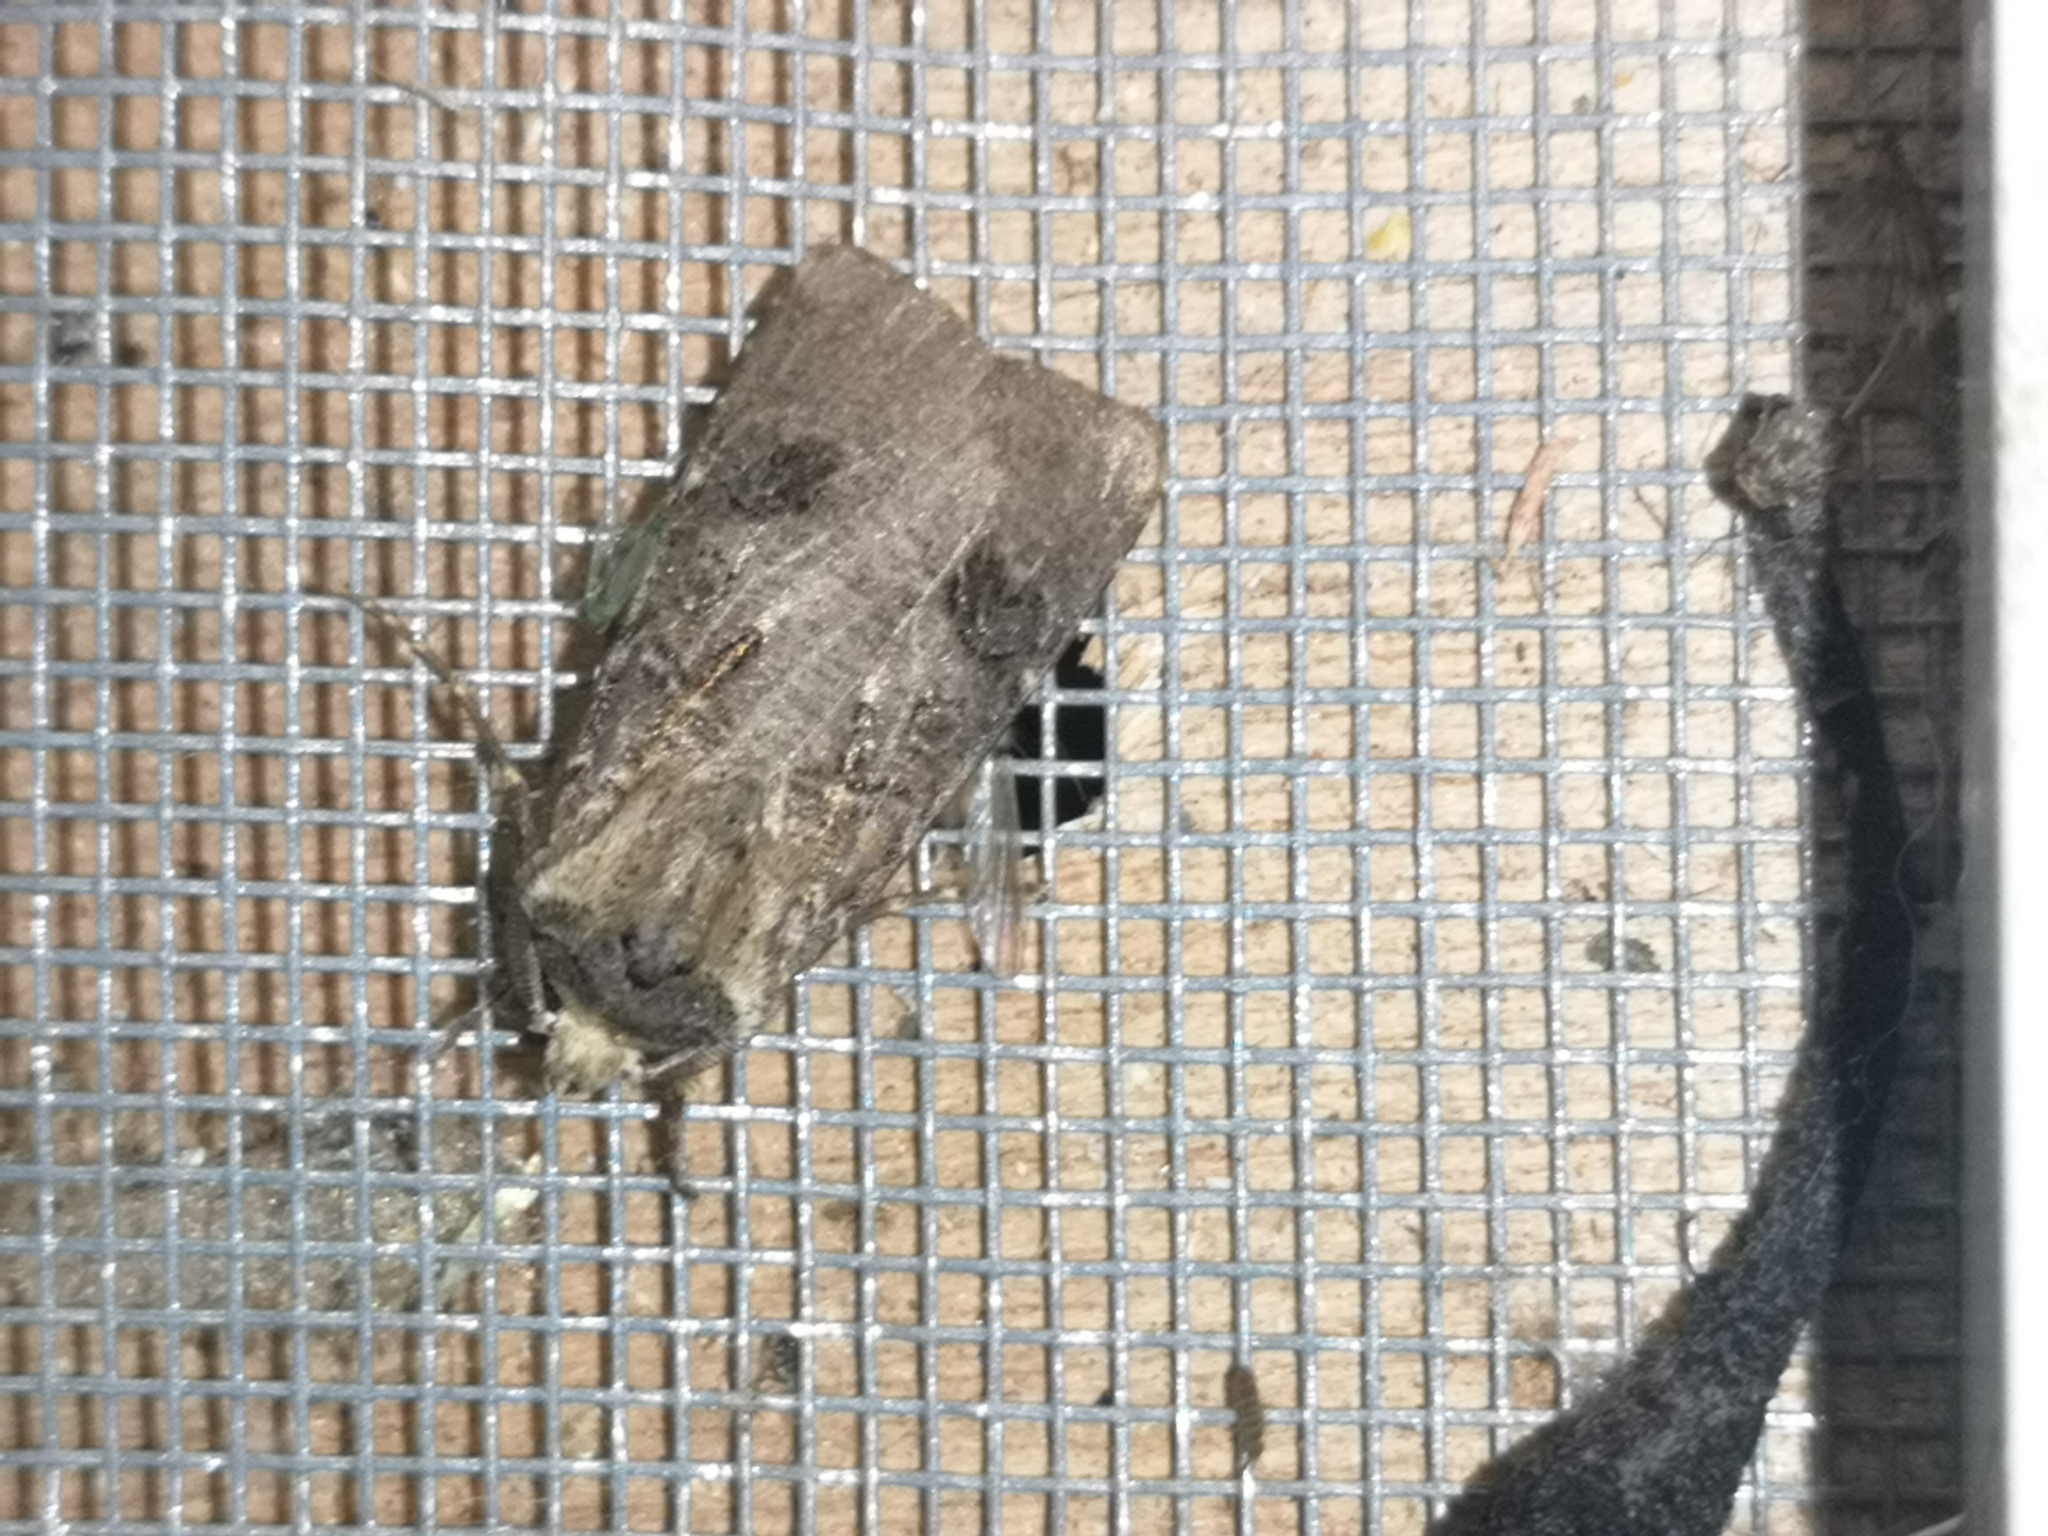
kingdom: Animalia
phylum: Arthropoda
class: Insecta
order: Lepidoptera
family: Noctuidae
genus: Agrotis
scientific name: Agrotis clavis
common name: Heart and club
